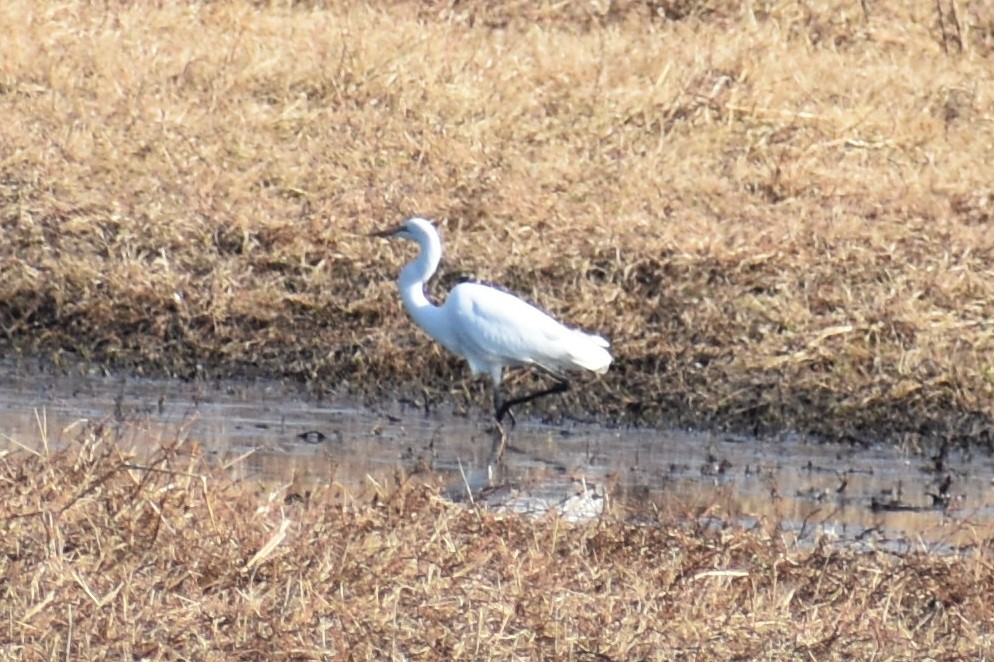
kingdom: Animalia
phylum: Chordata
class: Aves
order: Pelecaniformes
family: Ardeidae
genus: Ardea
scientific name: Ardea alba
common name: Great egret
